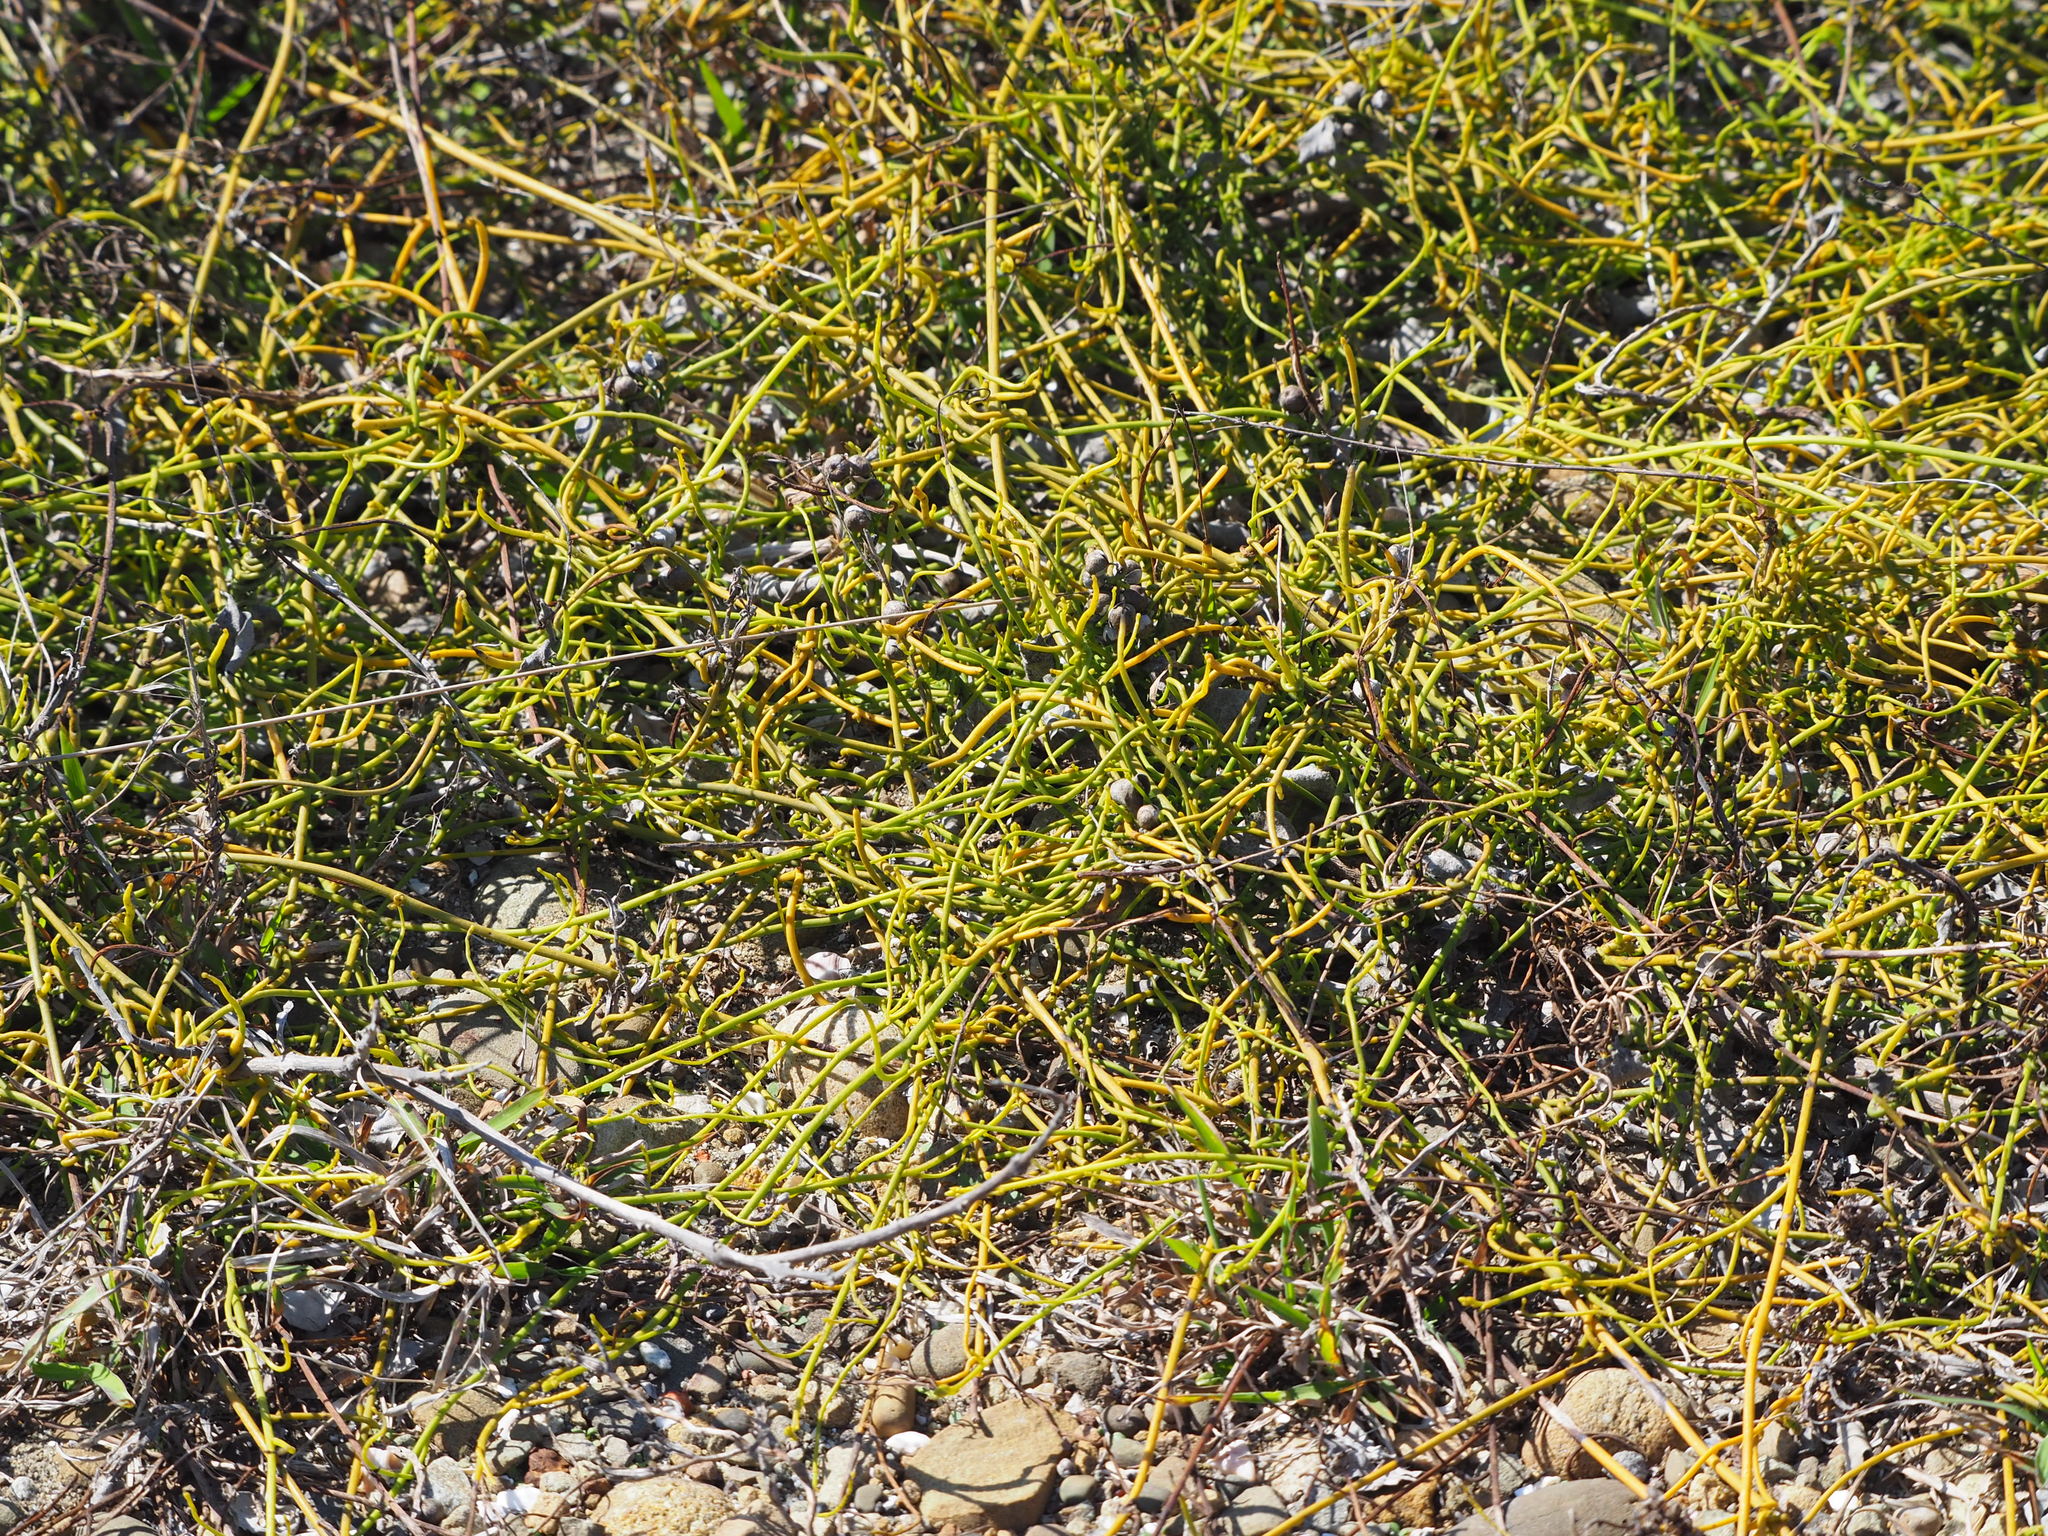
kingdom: Plantae
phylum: Tracheophyta
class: Magnoliopsida
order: Laurales
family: Lauraceae
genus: Cassytha
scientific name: Cassytha filiformis
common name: Dodder-laurel
